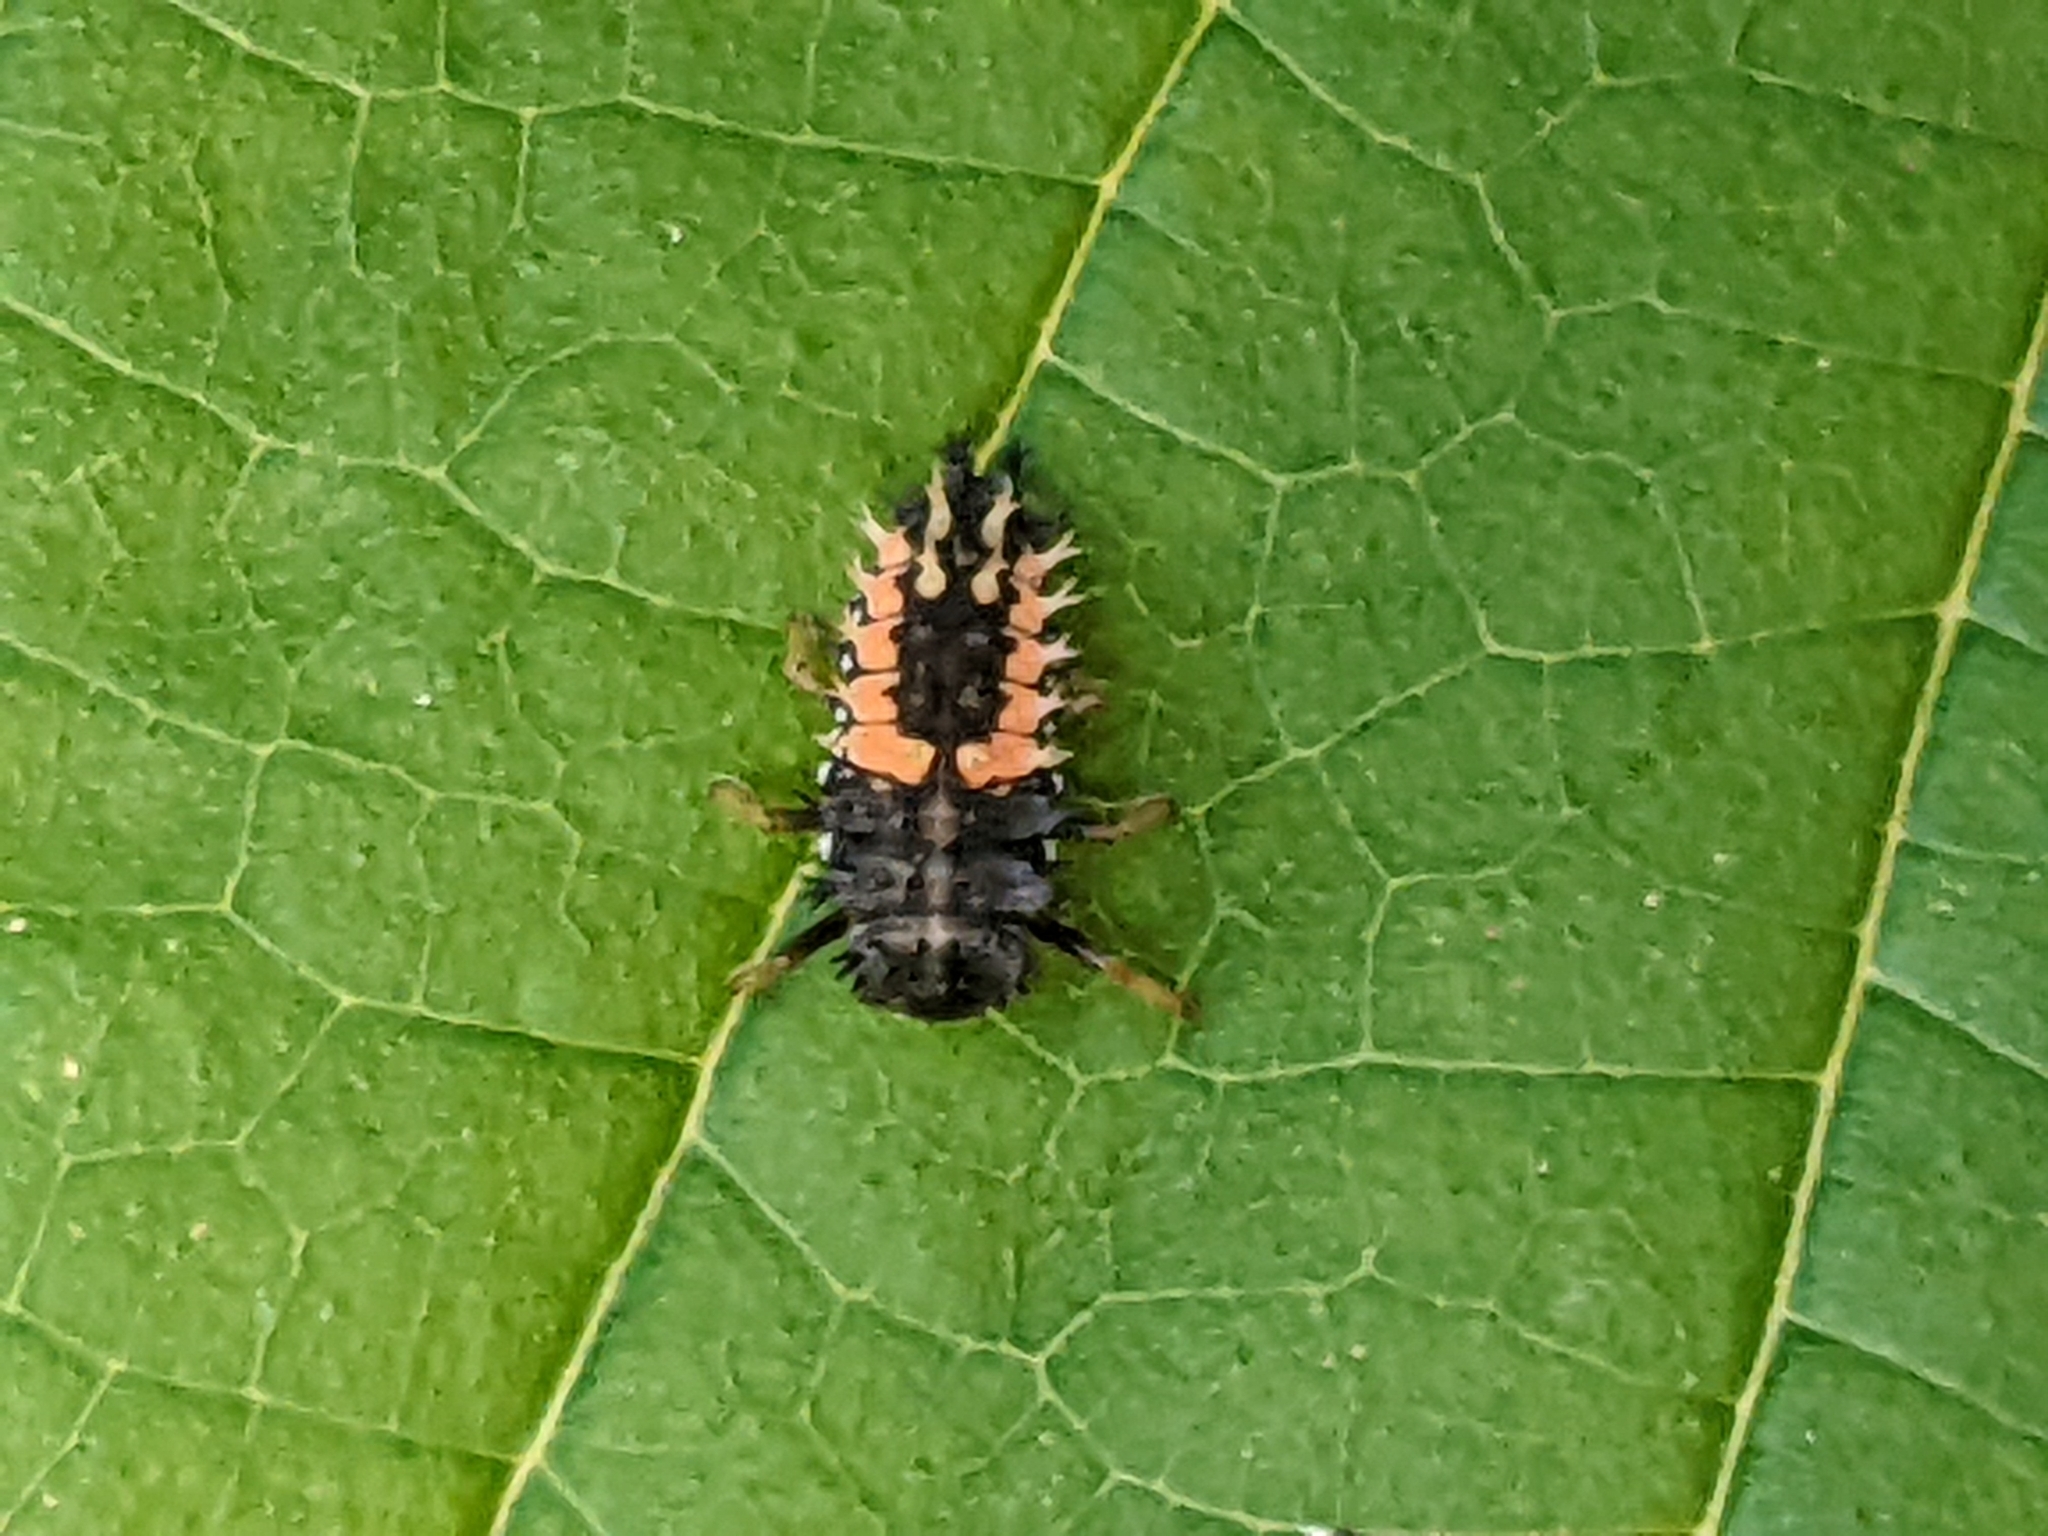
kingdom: Animalia
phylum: Arthropoda
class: Insecta
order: Coleoptera
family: Coccinellidae
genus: Harmonia
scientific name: Harmonia axyridis
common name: Harlequin ladybird
